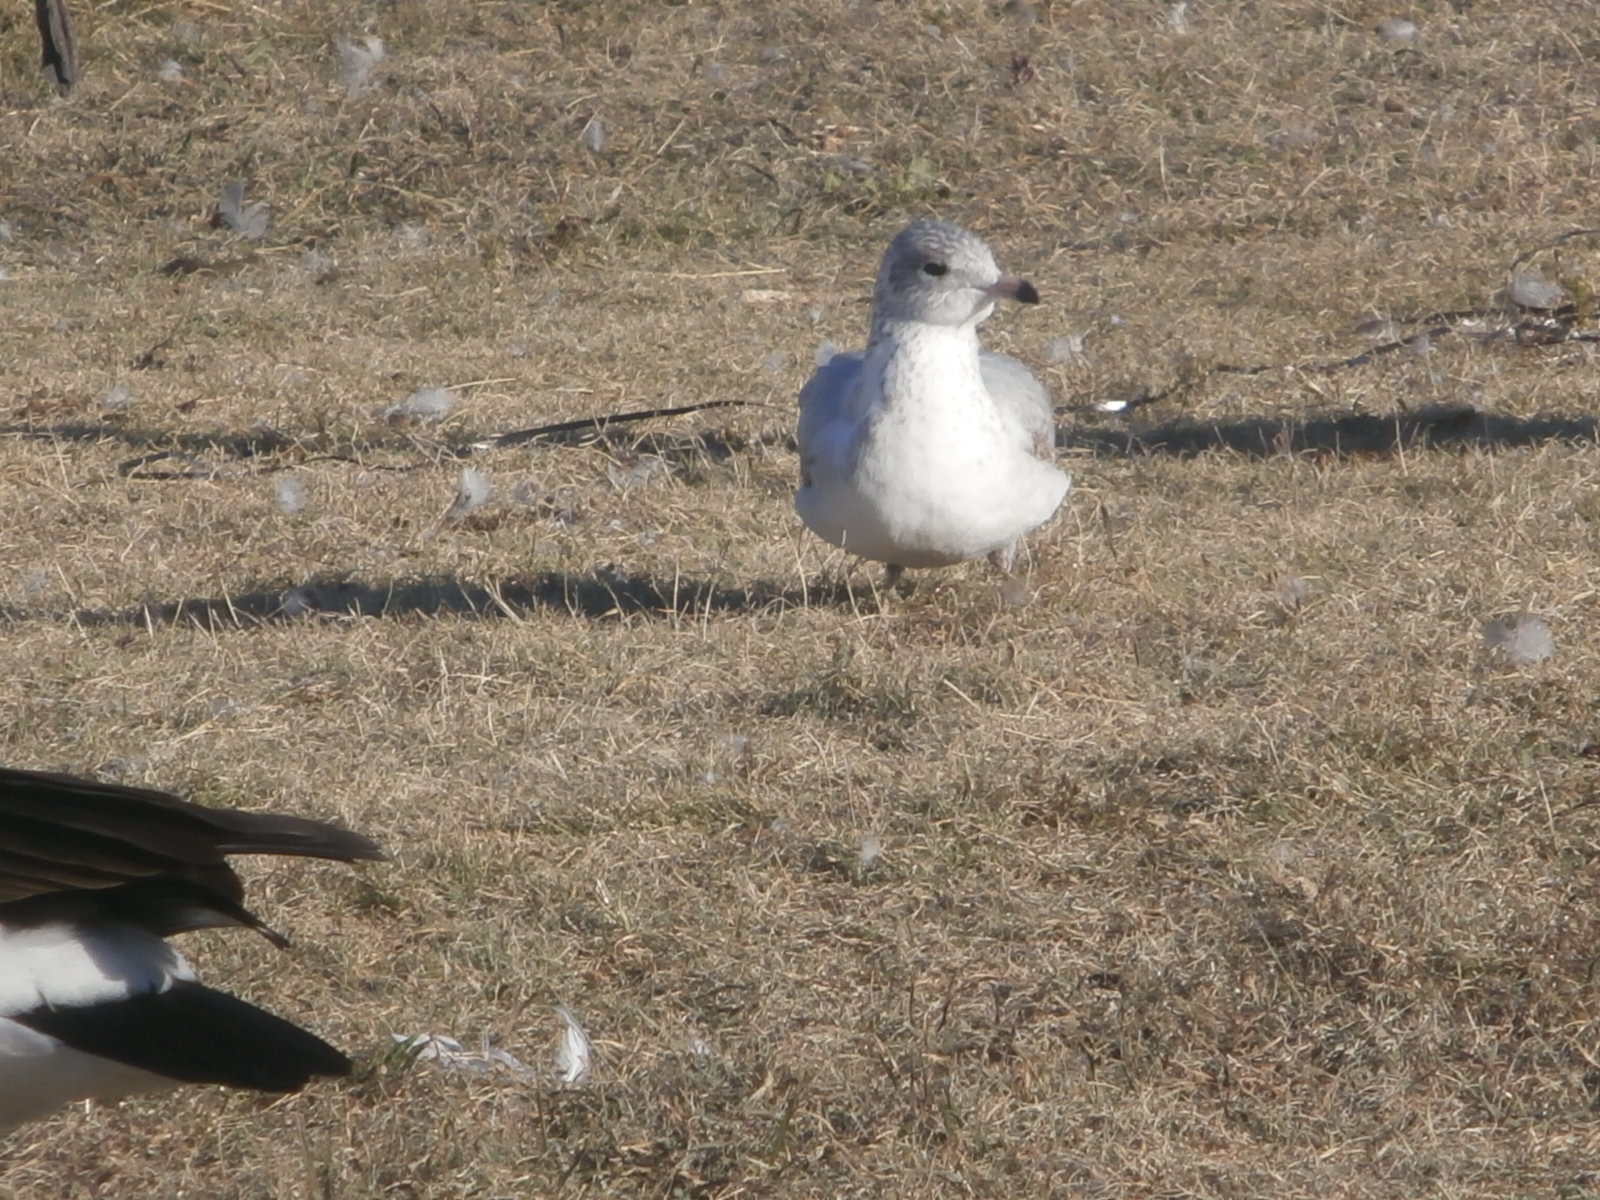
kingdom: Animalia
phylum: Chordata
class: Aves
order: Charadriiformes
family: Laridae
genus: Larus
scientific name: Larus delawarensis
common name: Ring-billed gull
